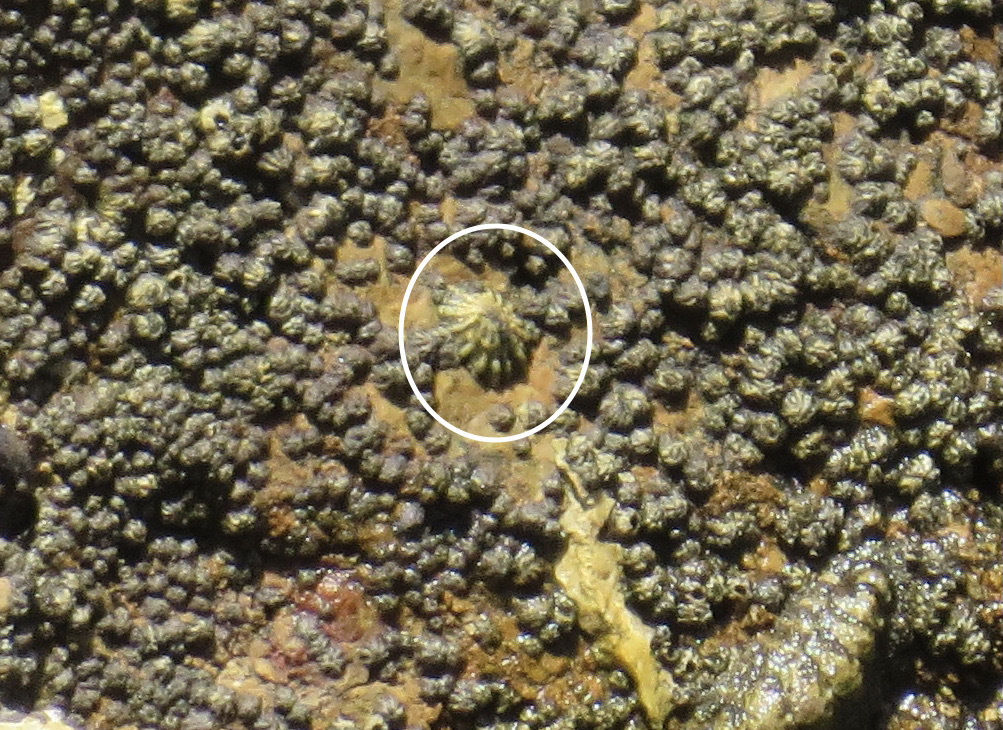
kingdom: Animalia
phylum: Mollusca
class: Gastropoda
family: Lottiidae
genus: Lottia
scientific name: Lottia scabra
